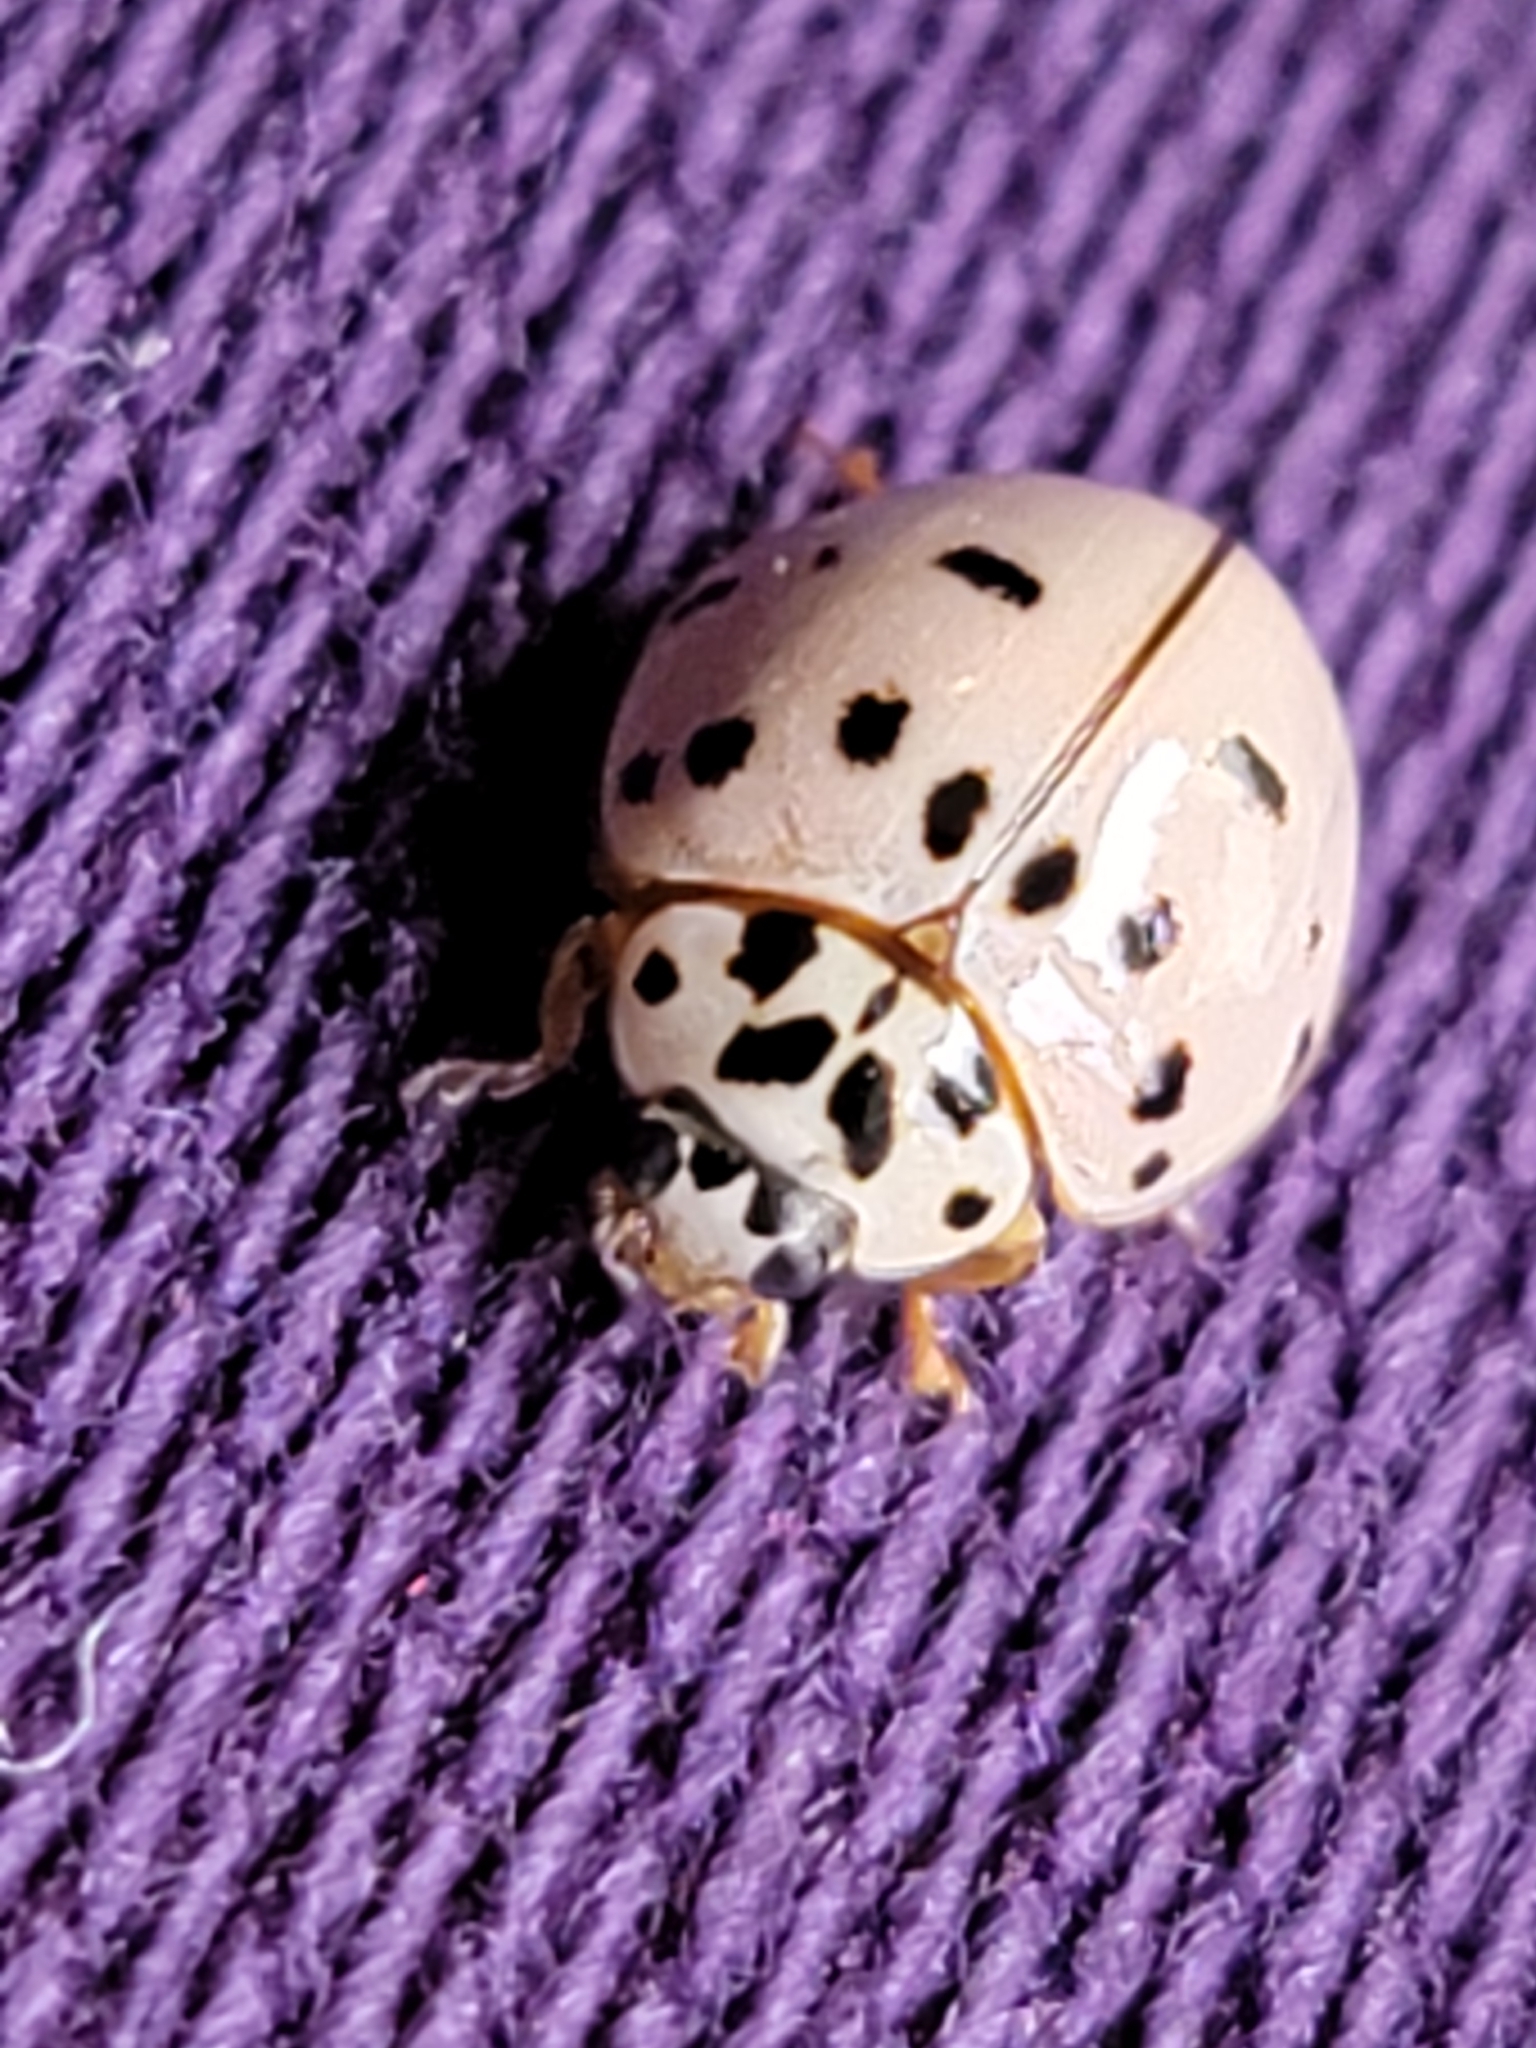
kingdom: Animalia
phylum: Arthropoda
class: Insecta
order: Coleoptera
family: Coccinellidae
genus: Olla
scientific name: Olla v-nigrum
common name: Ashy gray lady beetle
